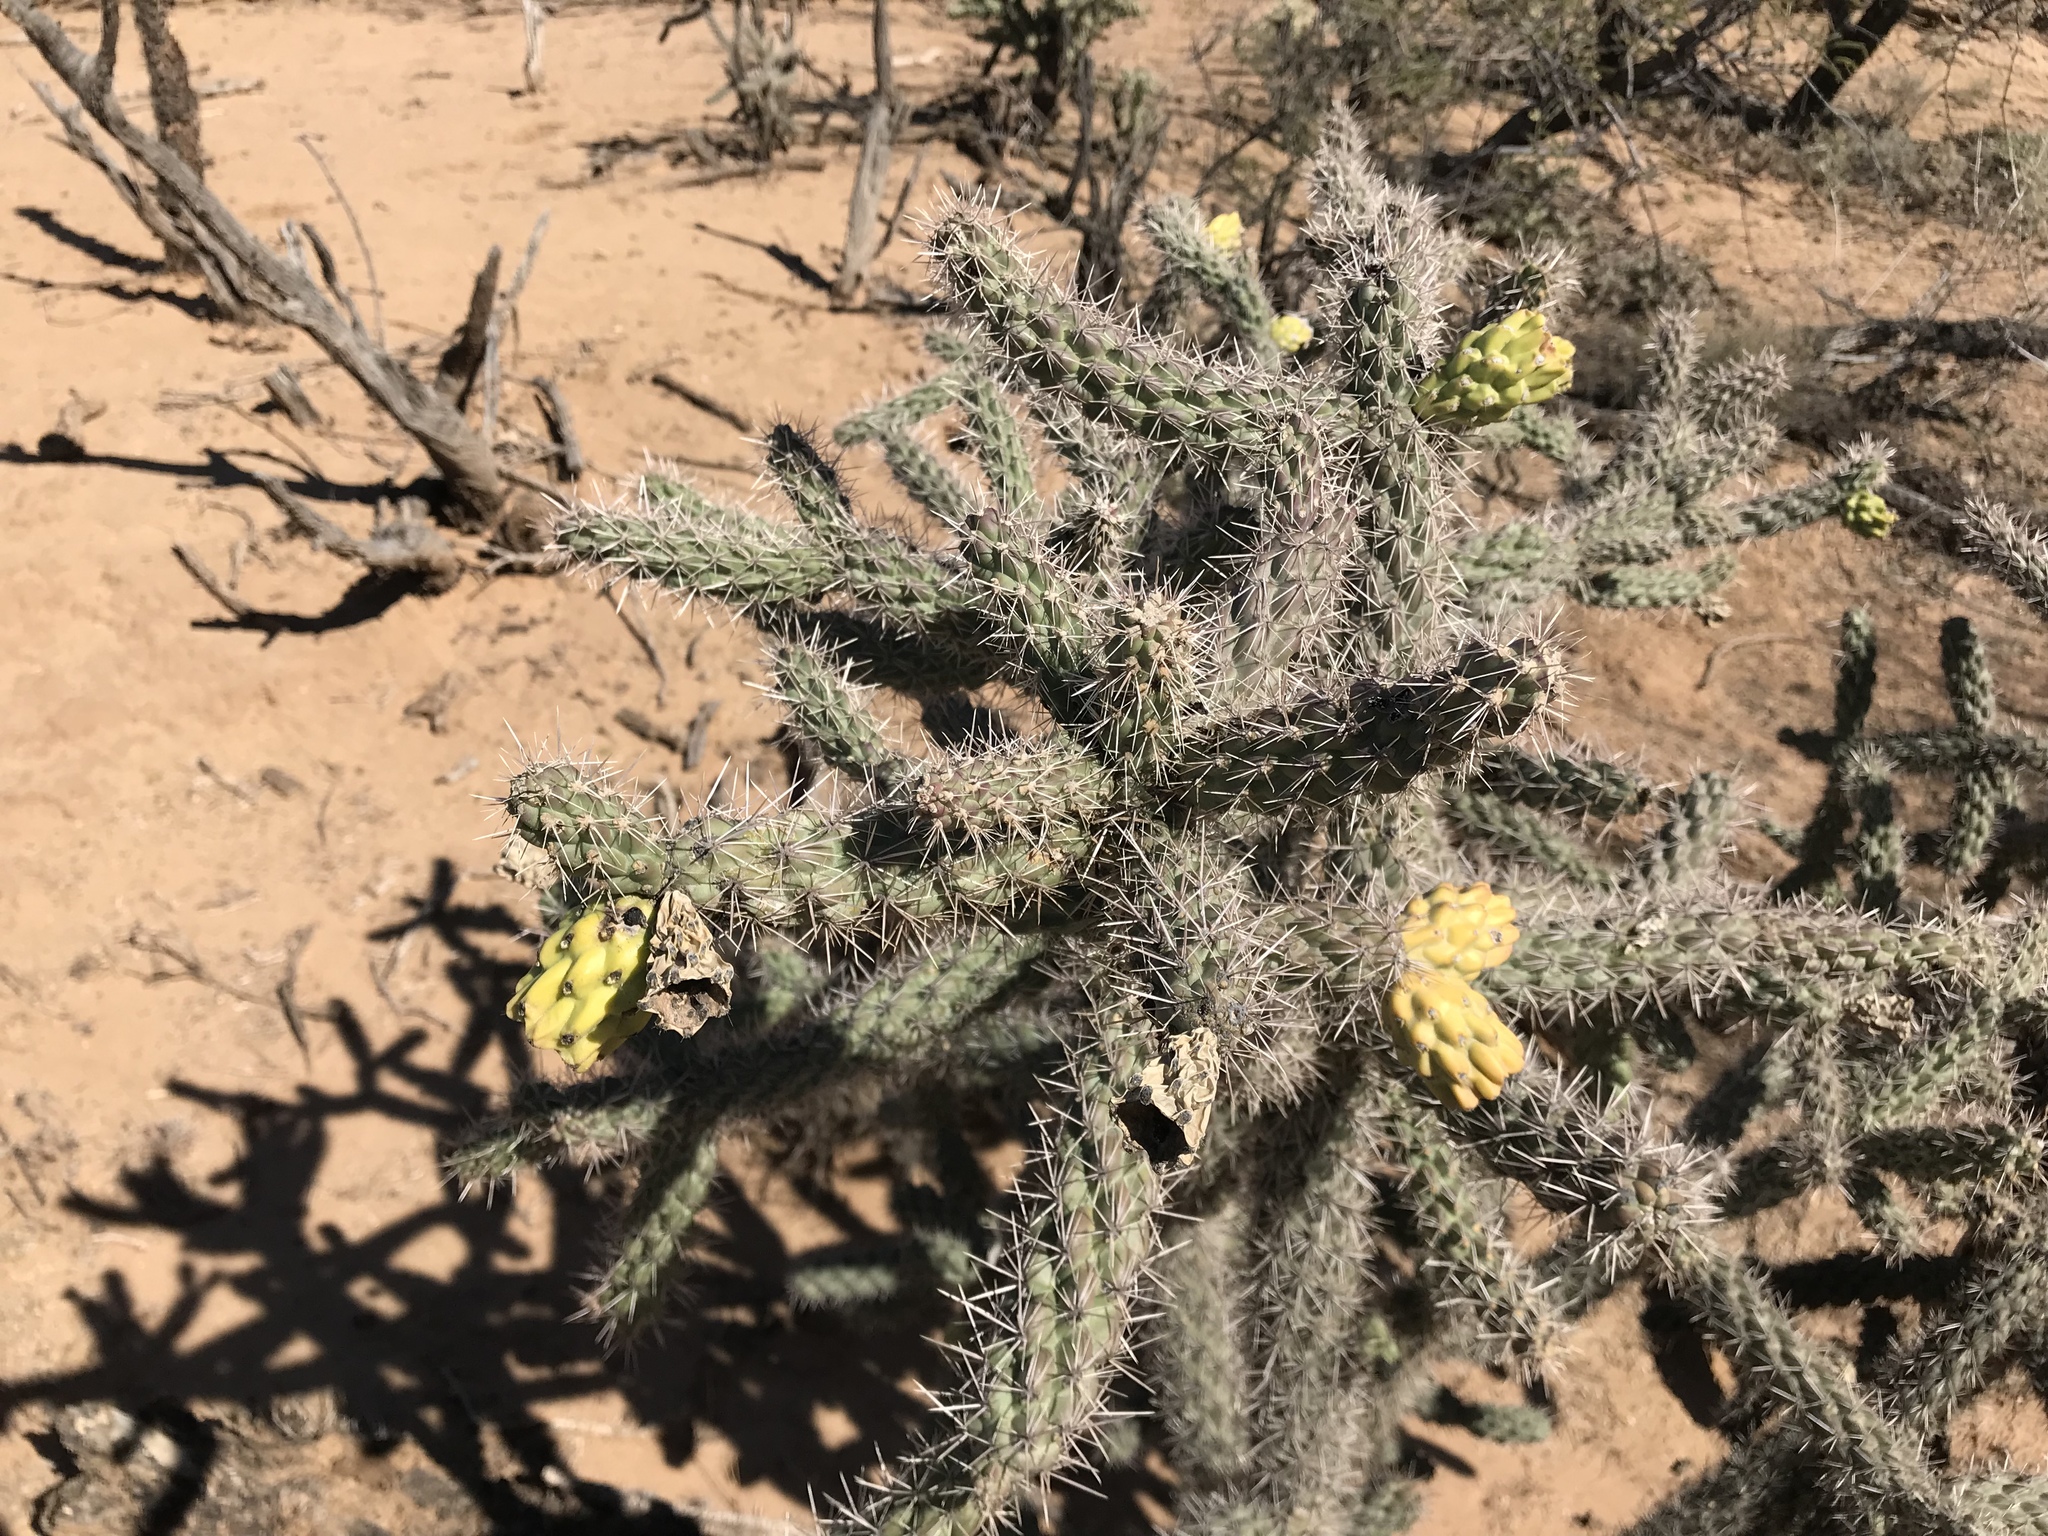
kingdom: Plantae
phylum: Tracheophyta
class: Magnoliopsida
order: Caryophyllales
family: Cactaceae
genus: Cylindropuntia
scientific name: Cylindropuntia imbricata
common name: Candelabrum cactus
